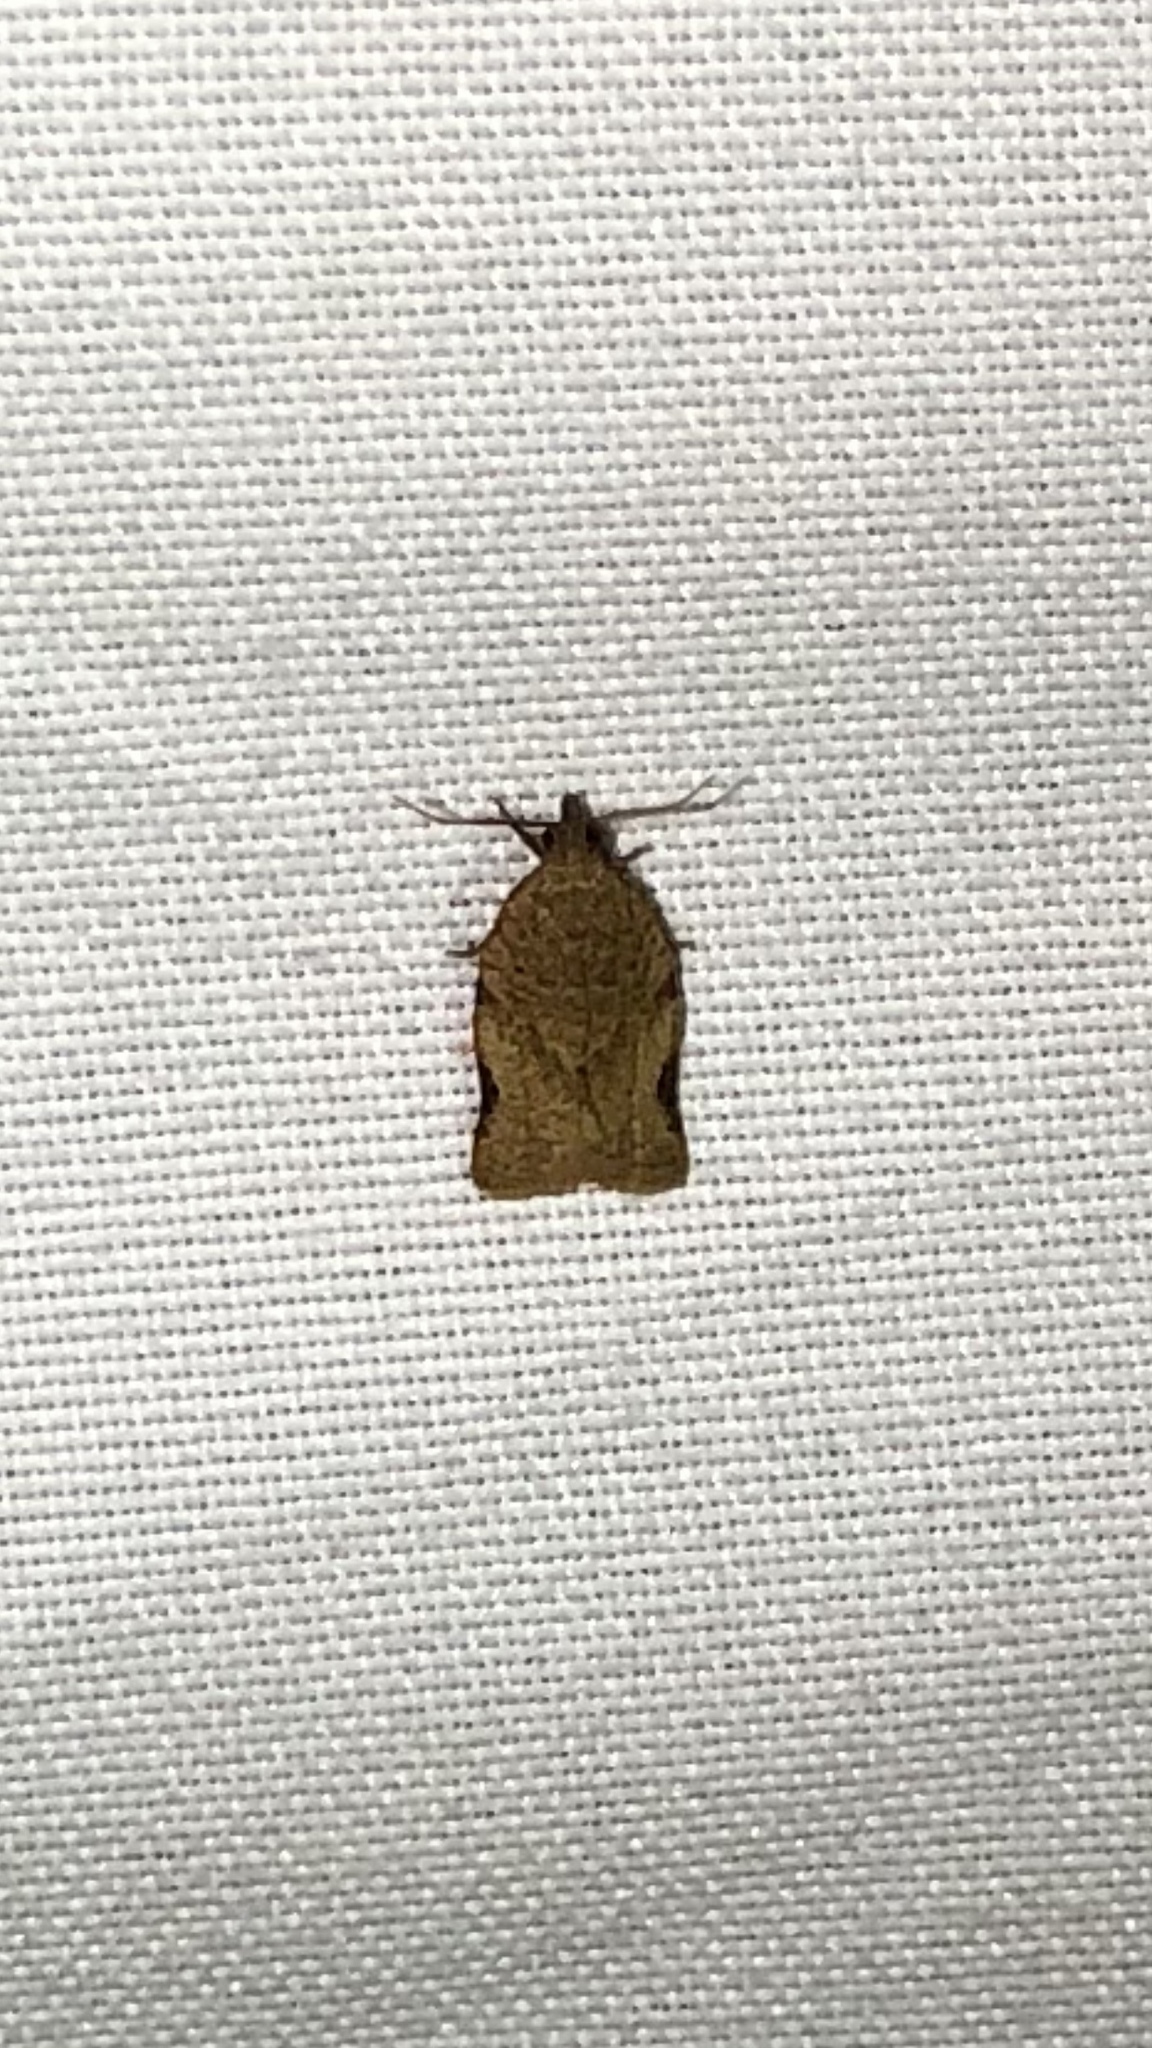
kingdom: Animalia
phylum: Arthropoda
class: Insecta
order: Lepidoptera
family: Tortricidae
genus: Clepsis
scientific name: Clepsis virescana
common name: Greenish apple moth
